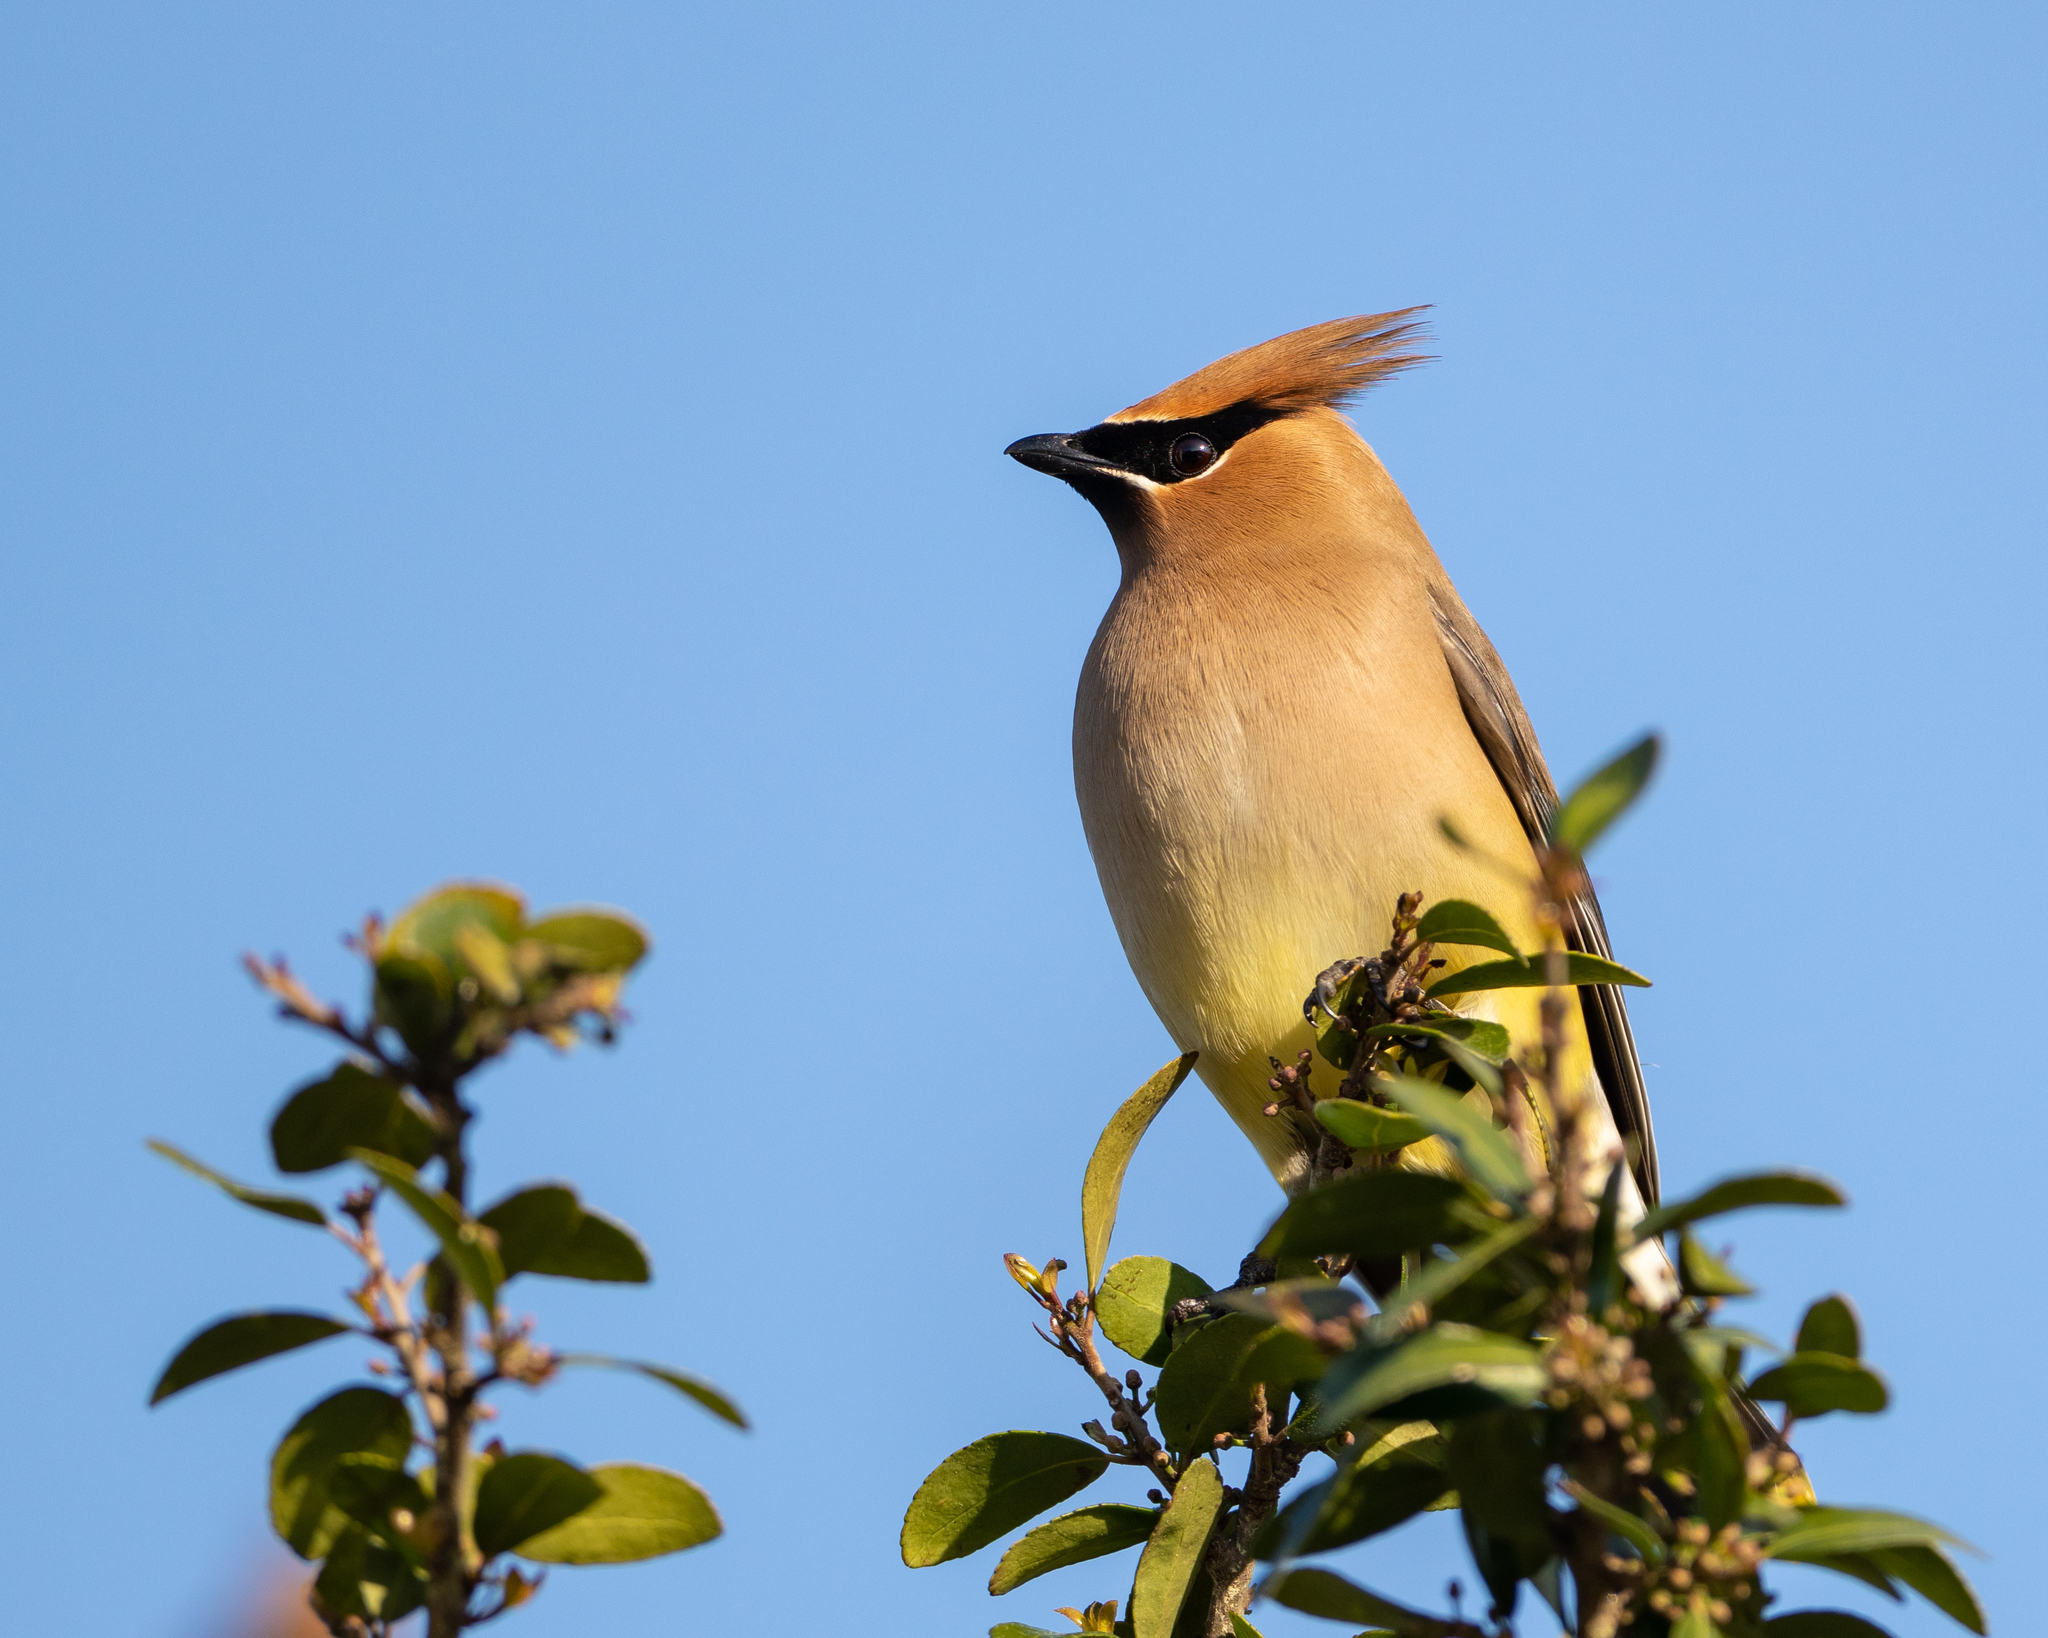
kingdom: Animalia
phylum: Chordata
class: Aves
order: Passeriformes
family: Bombycillidae
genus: Bombycilla
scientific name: Bombycilla cedrorum
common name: Cedar waxwing
